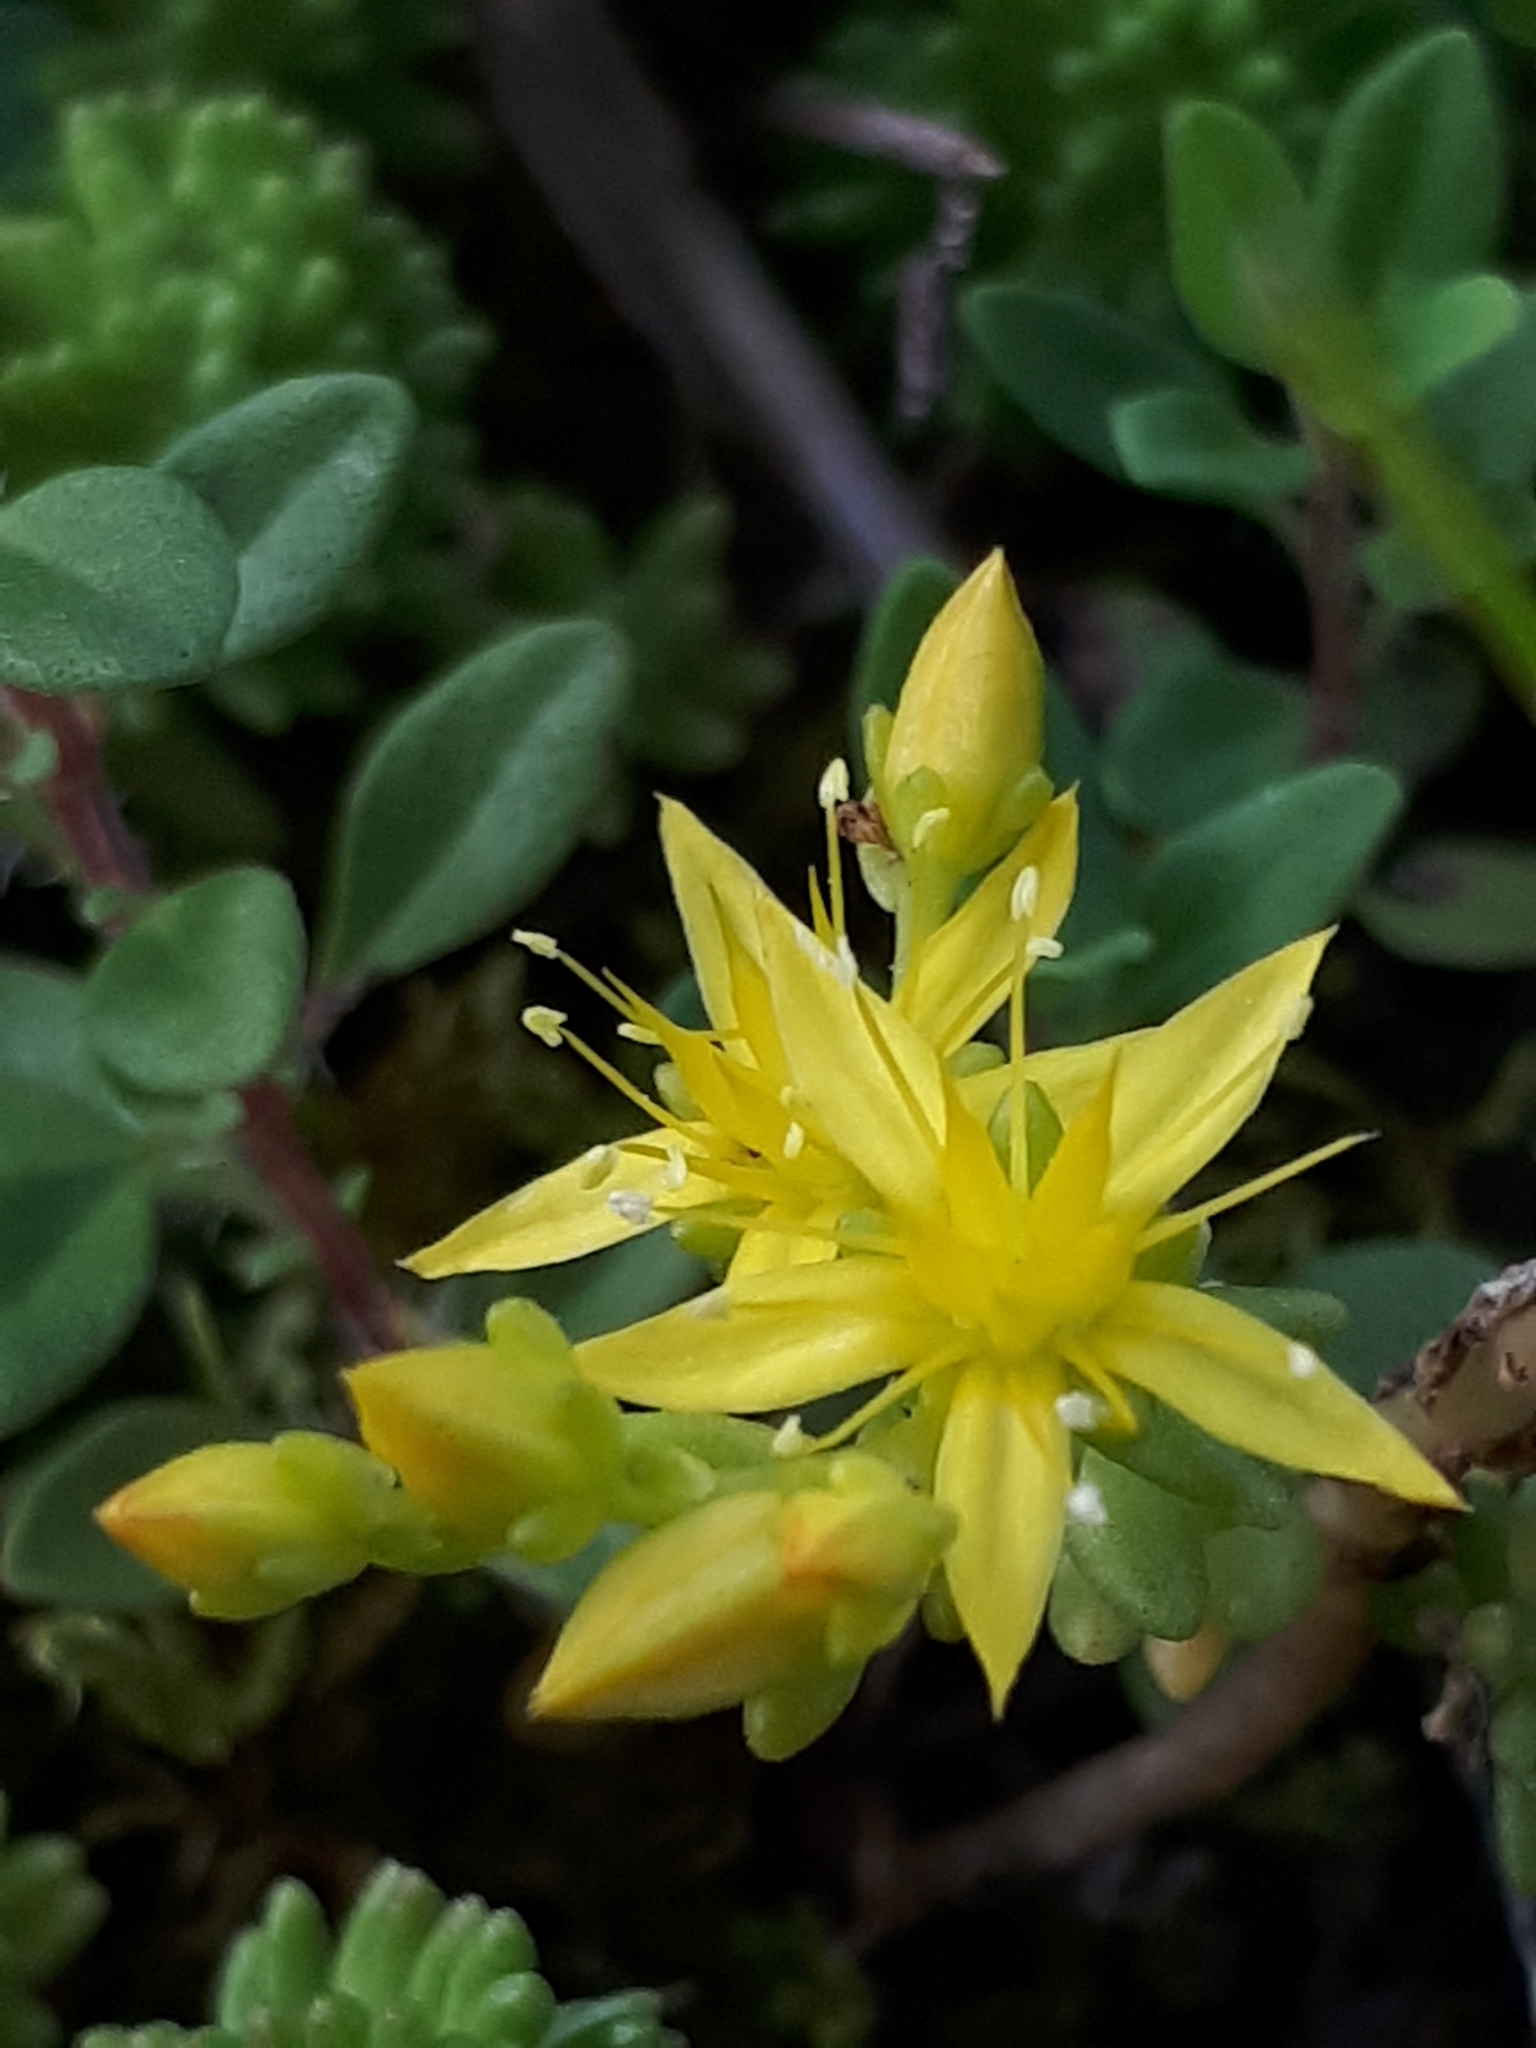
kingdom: Plantae
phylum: Tracheophyta
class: Magnoliopsida
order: Saxifragales
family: Crassulaceae
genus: Sedum
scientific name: Sedum sexangulare
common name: Tasteless stonecrop
